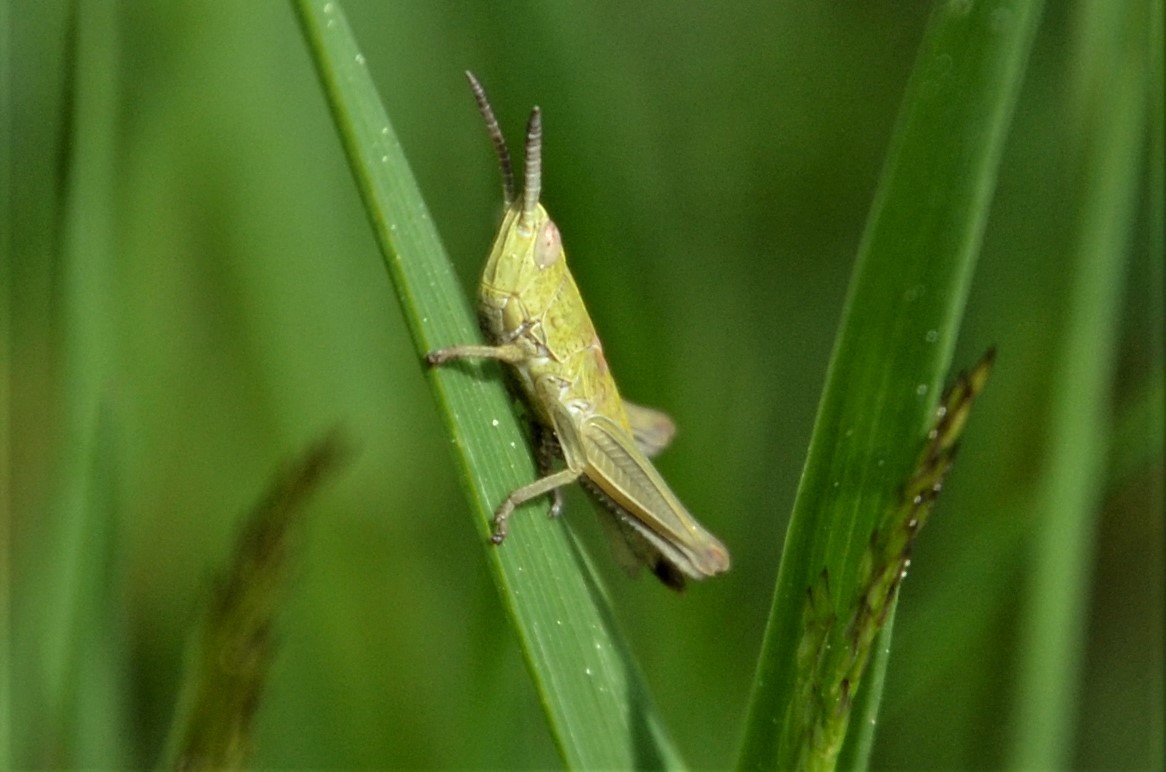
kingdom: Animalia
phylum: Arthropoda
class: Insecta
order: Orthoptera
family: Acrididae
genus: Euthystira
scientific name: Euthystira brachyptera
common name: Small gold grasshopper
